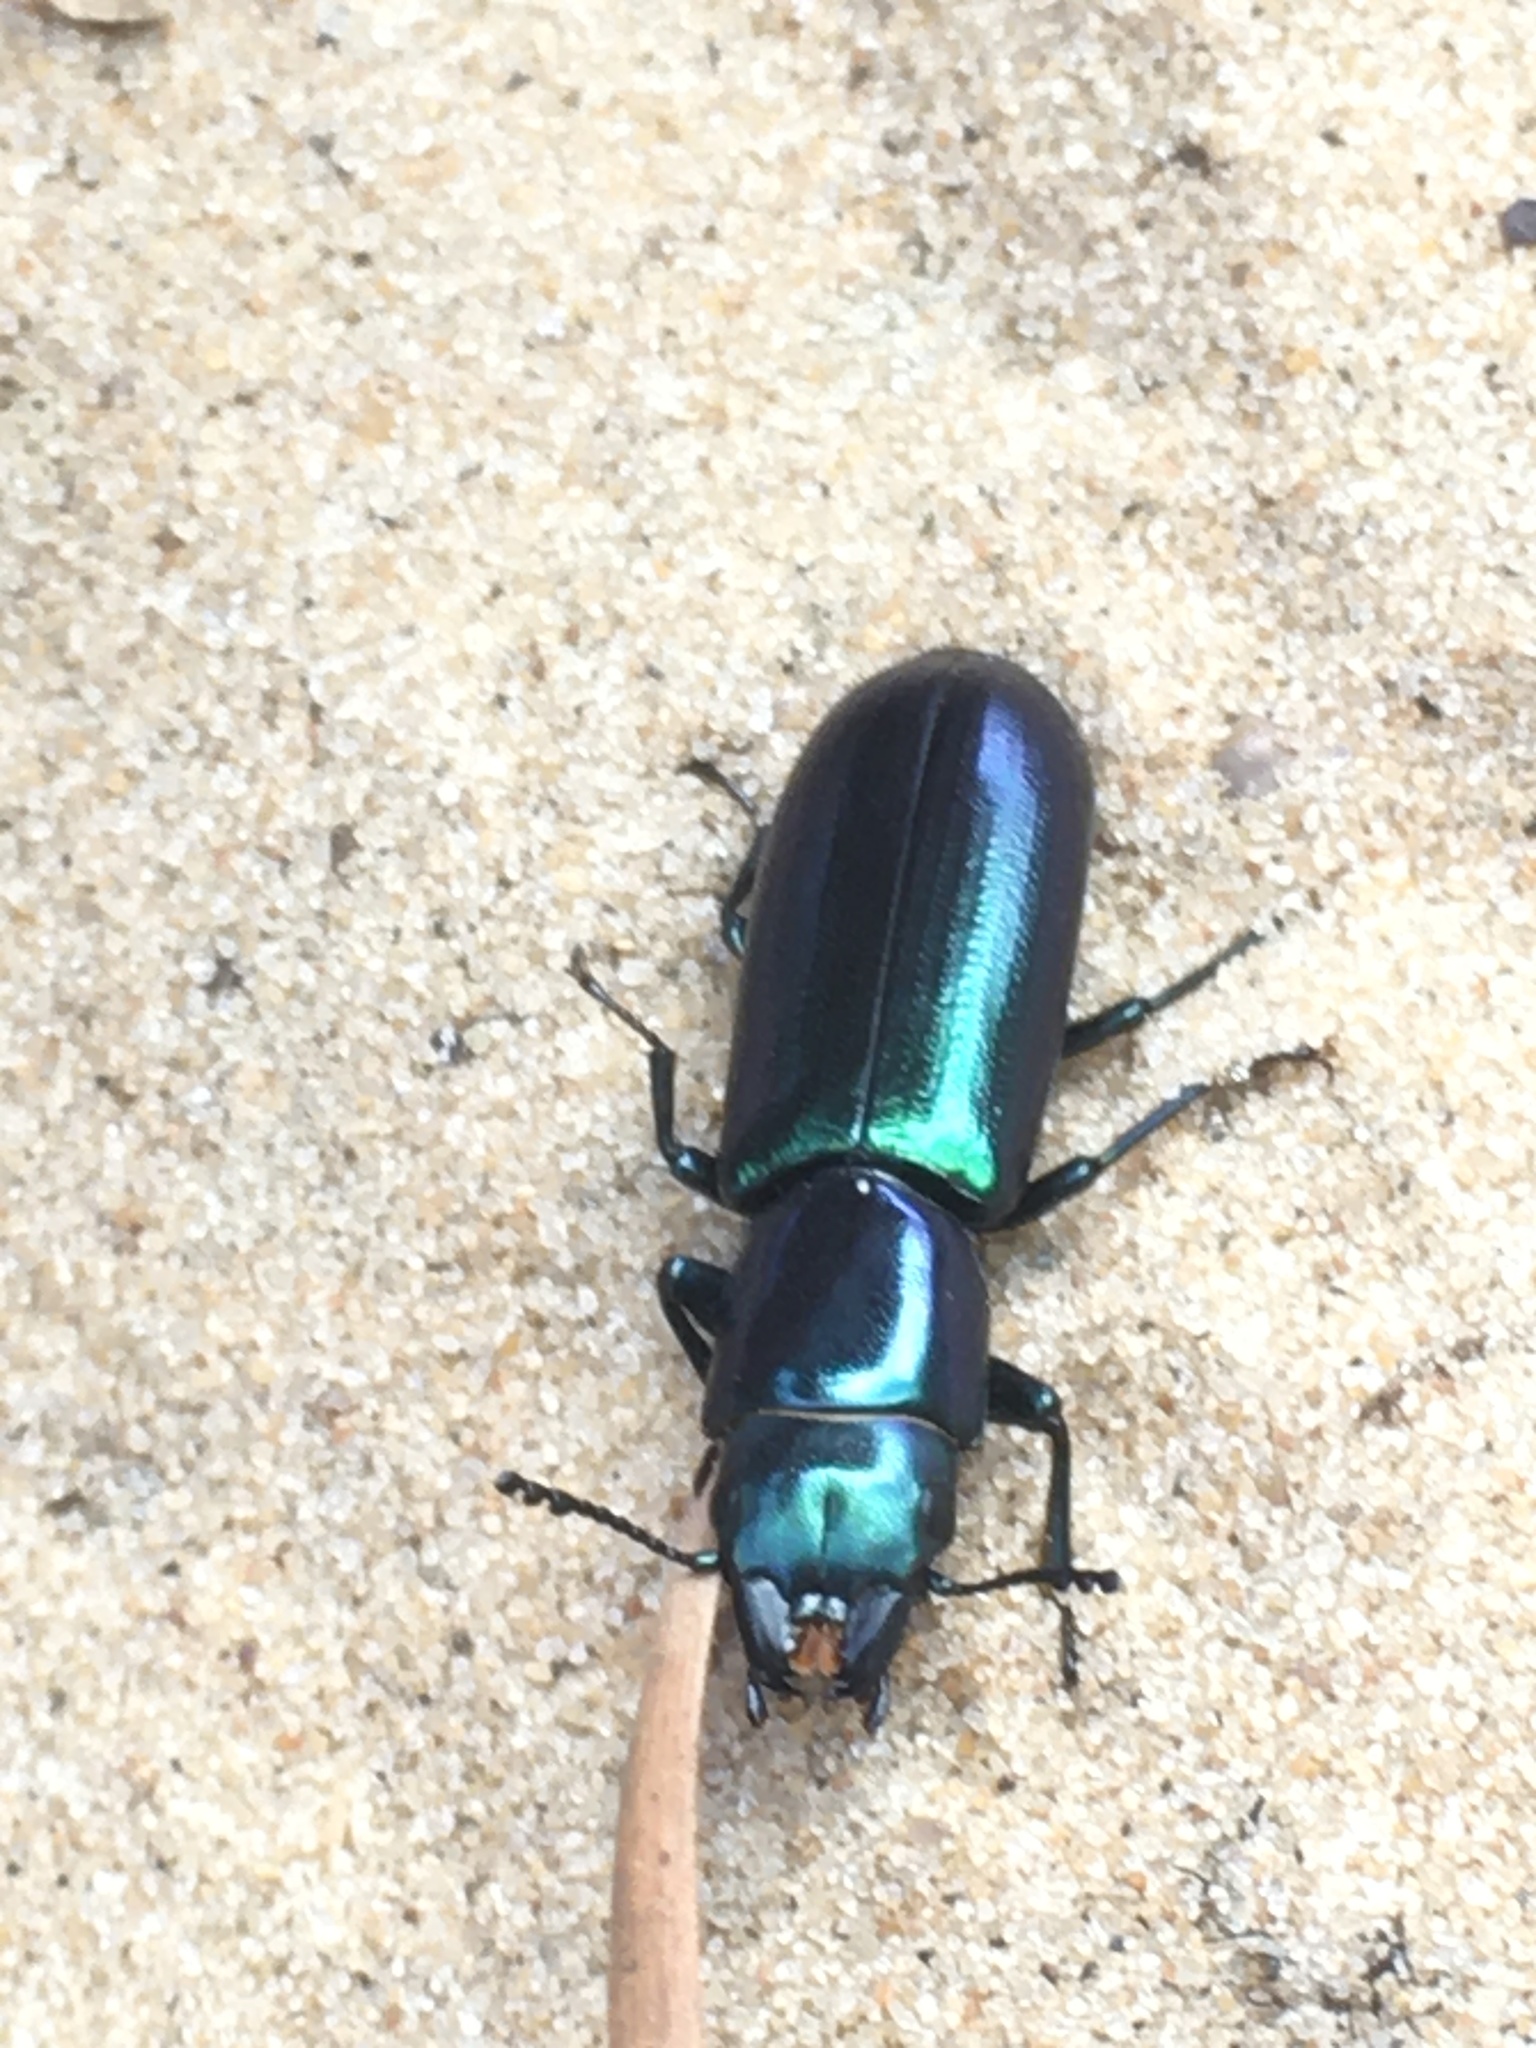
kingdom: Animalia
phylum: Arthropoda
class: Insecta
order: Coleoptera
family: Trogossitidae
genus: Temnochila
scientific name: Temnochila virescens
